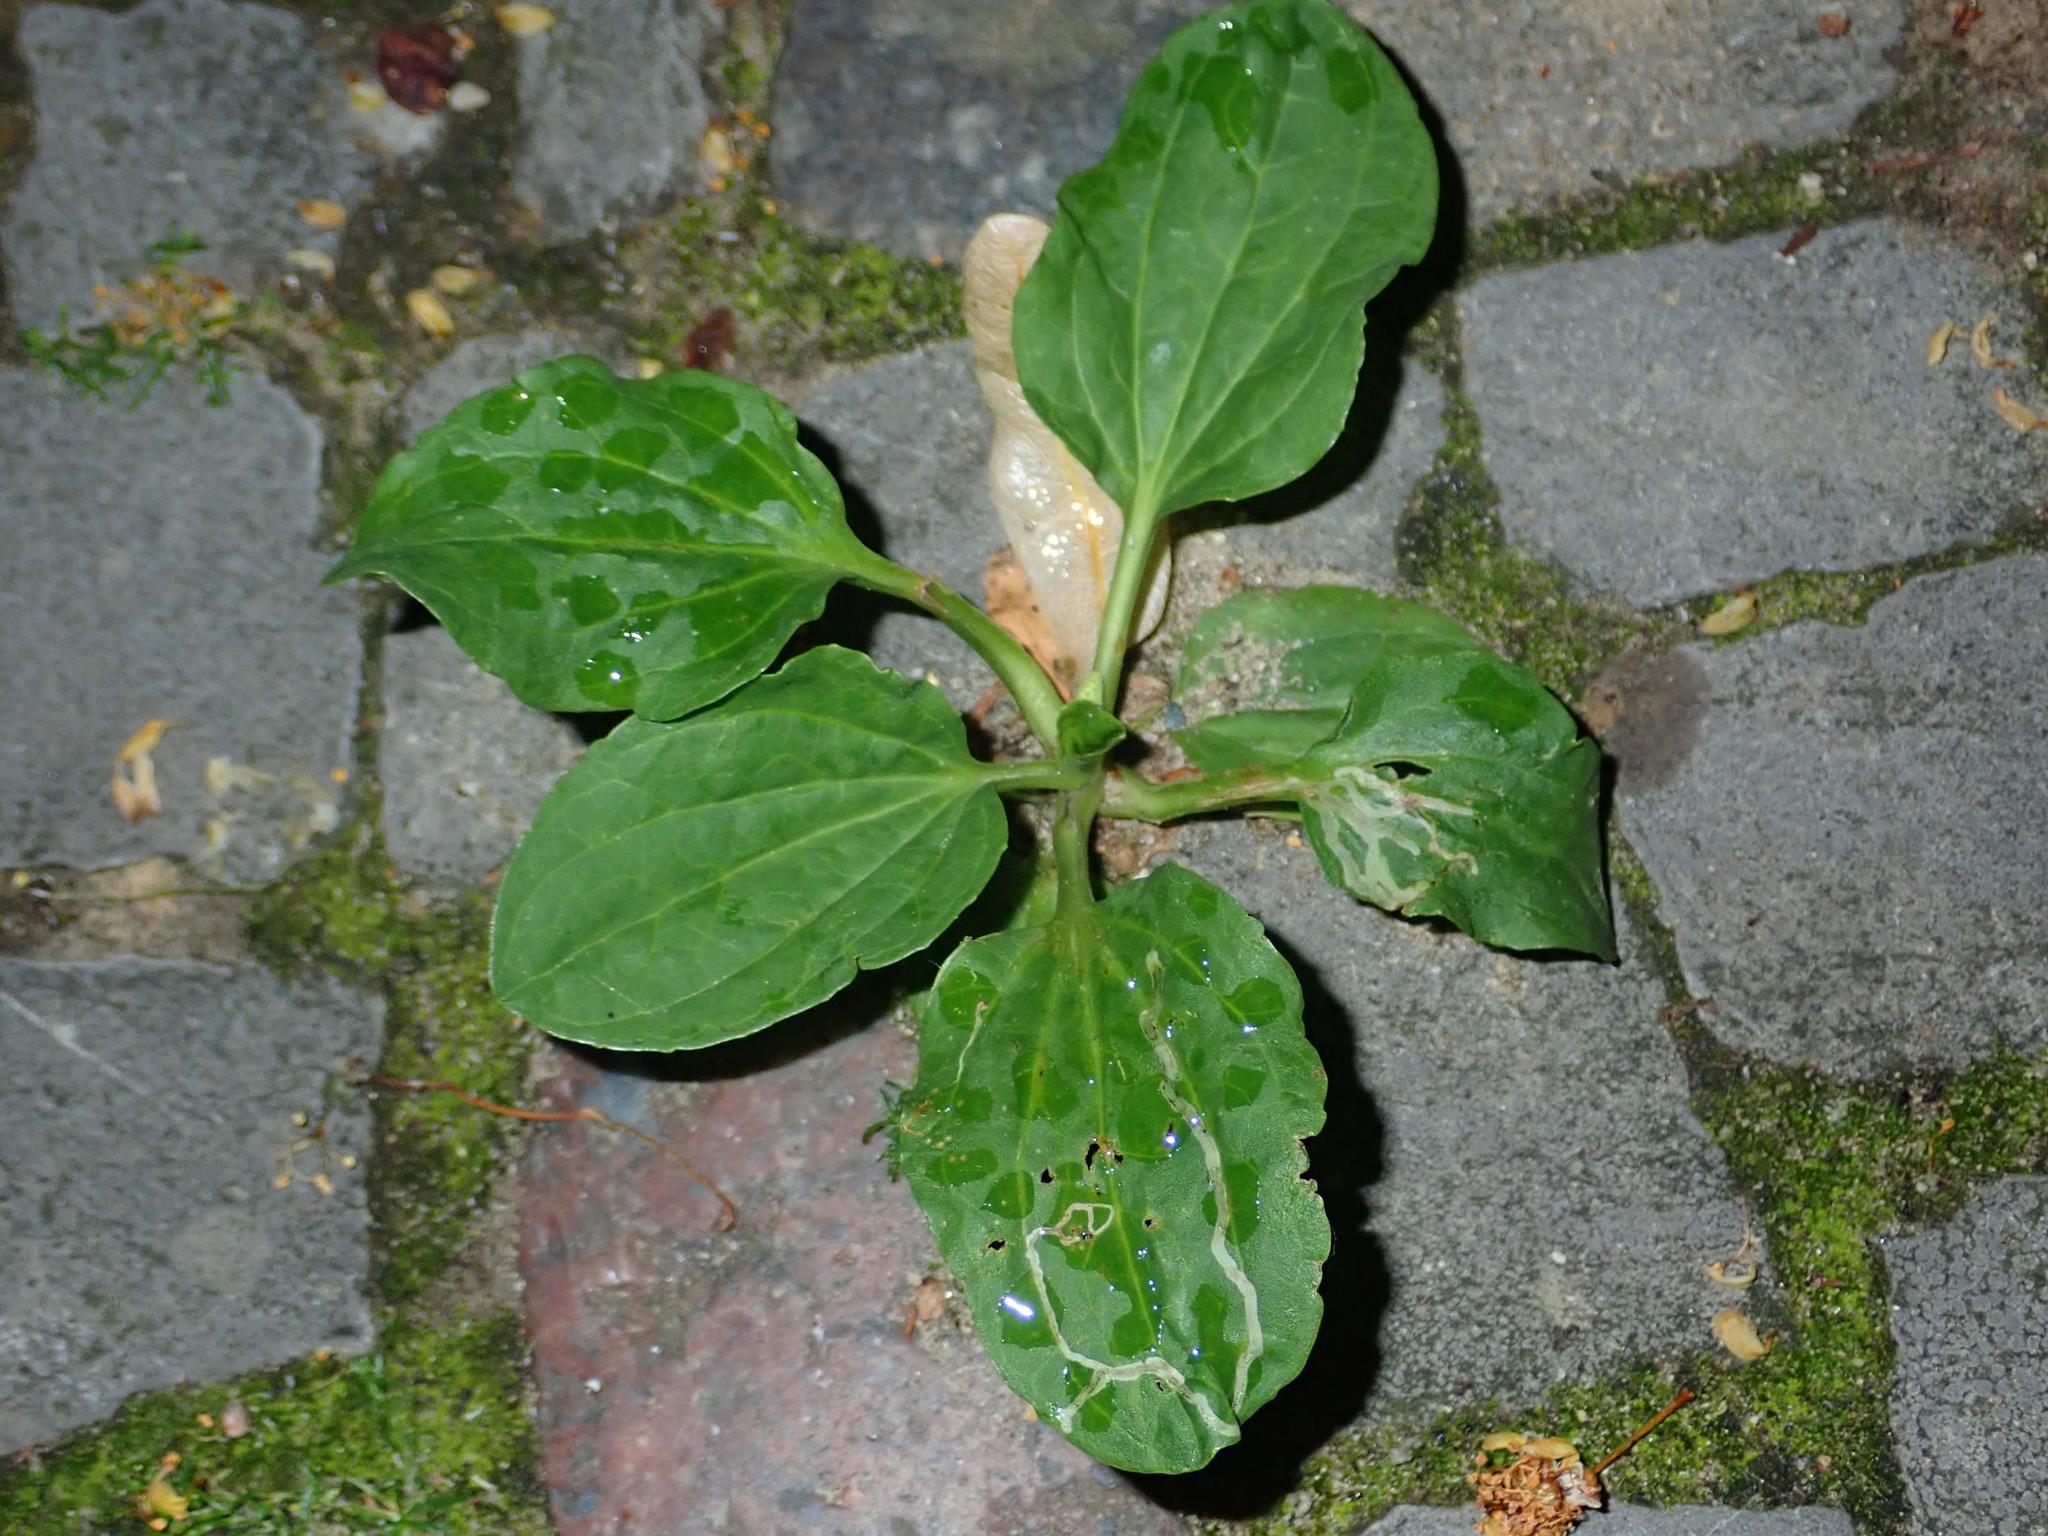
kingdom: Plantae
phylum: Tracheophyta
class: Magnoliopsida
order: Lamiales
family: Plantaginaceae
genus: Plantago
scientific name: Plantago major
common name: Common plantain
